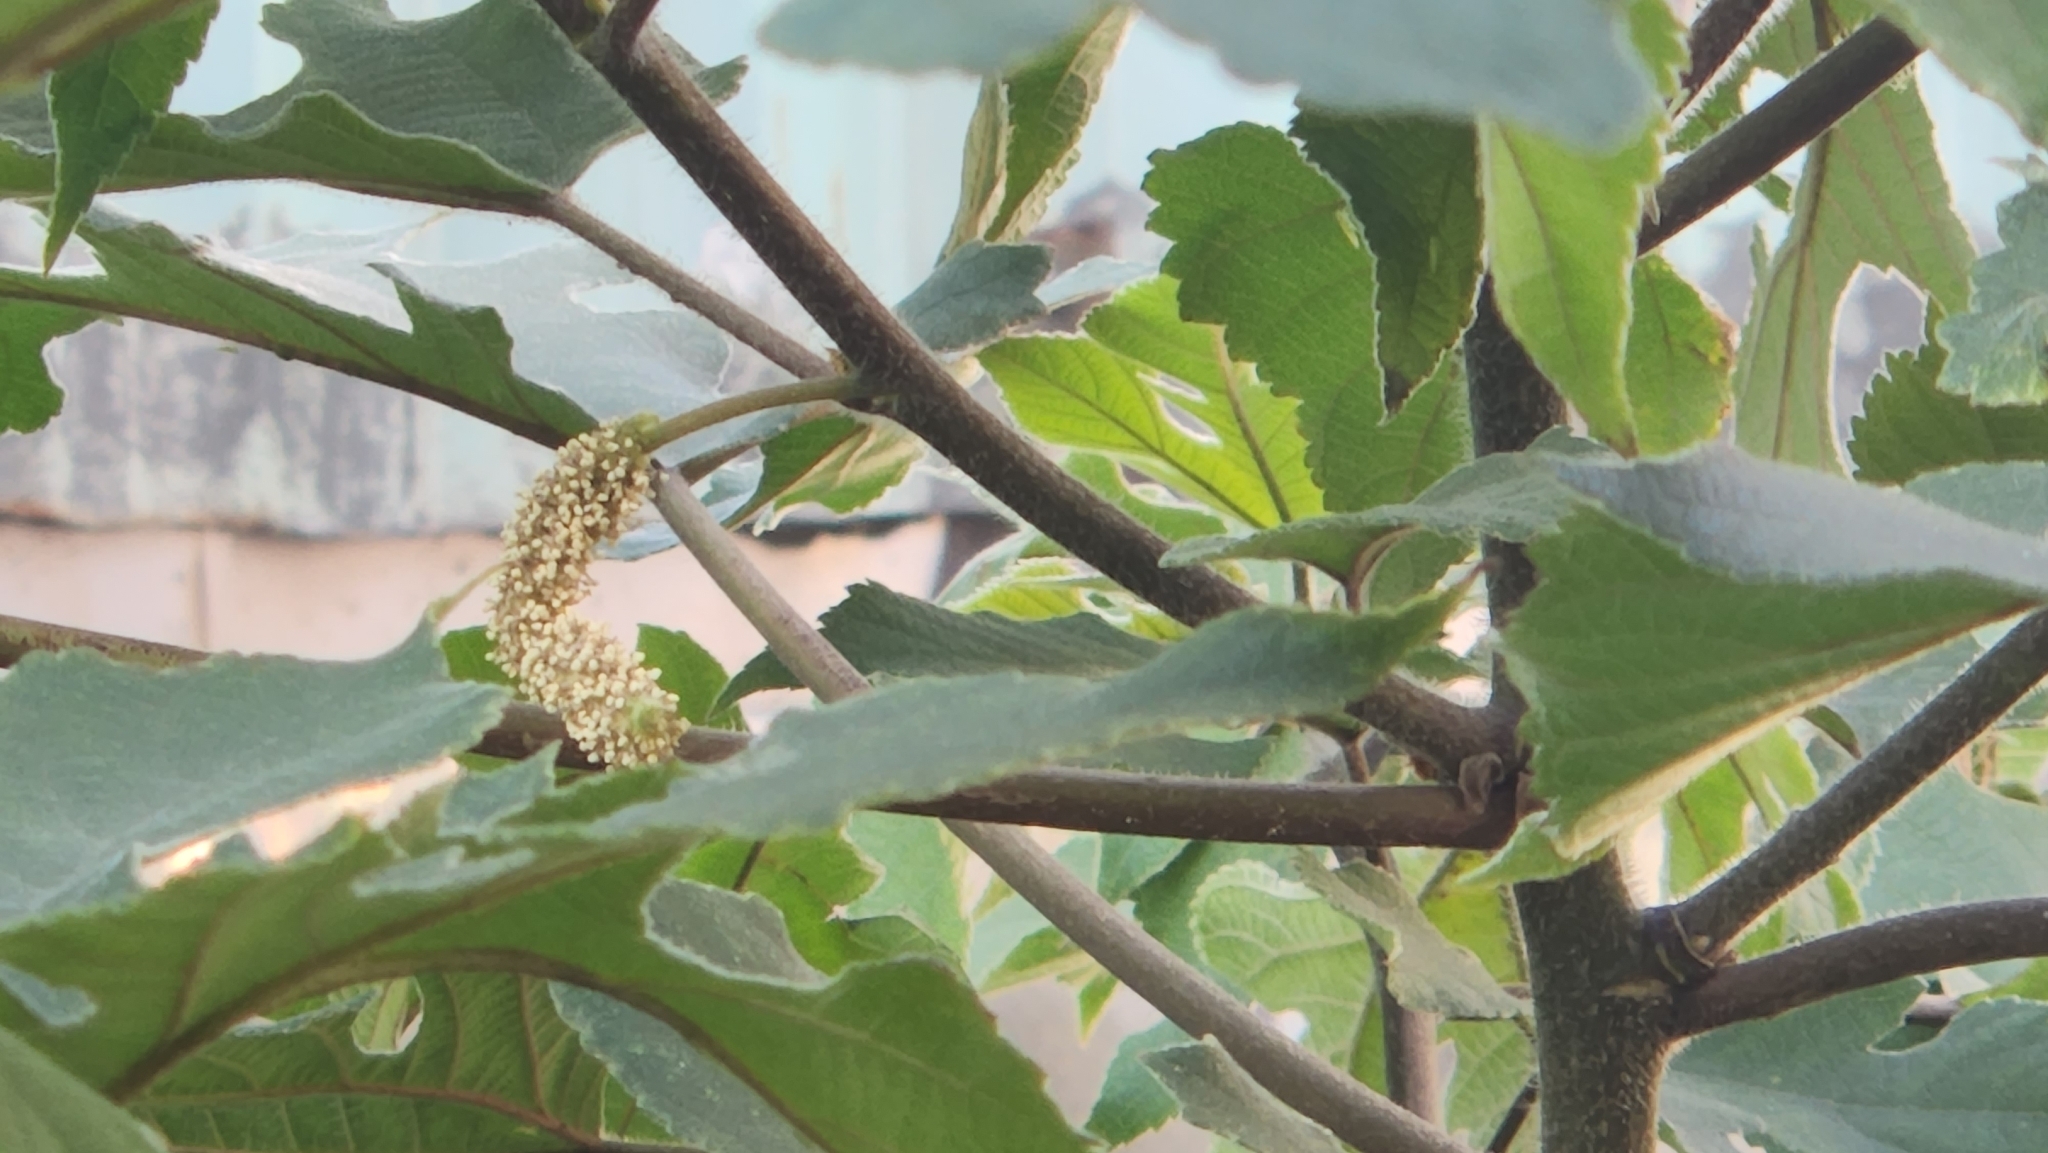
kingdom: Plantae
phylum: Tracheophyta
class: Magnoliopsida
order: Rosales
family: Moraceae
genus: Broussonetia
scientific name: Broussonetia papyrifera
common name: Paper mulberry
